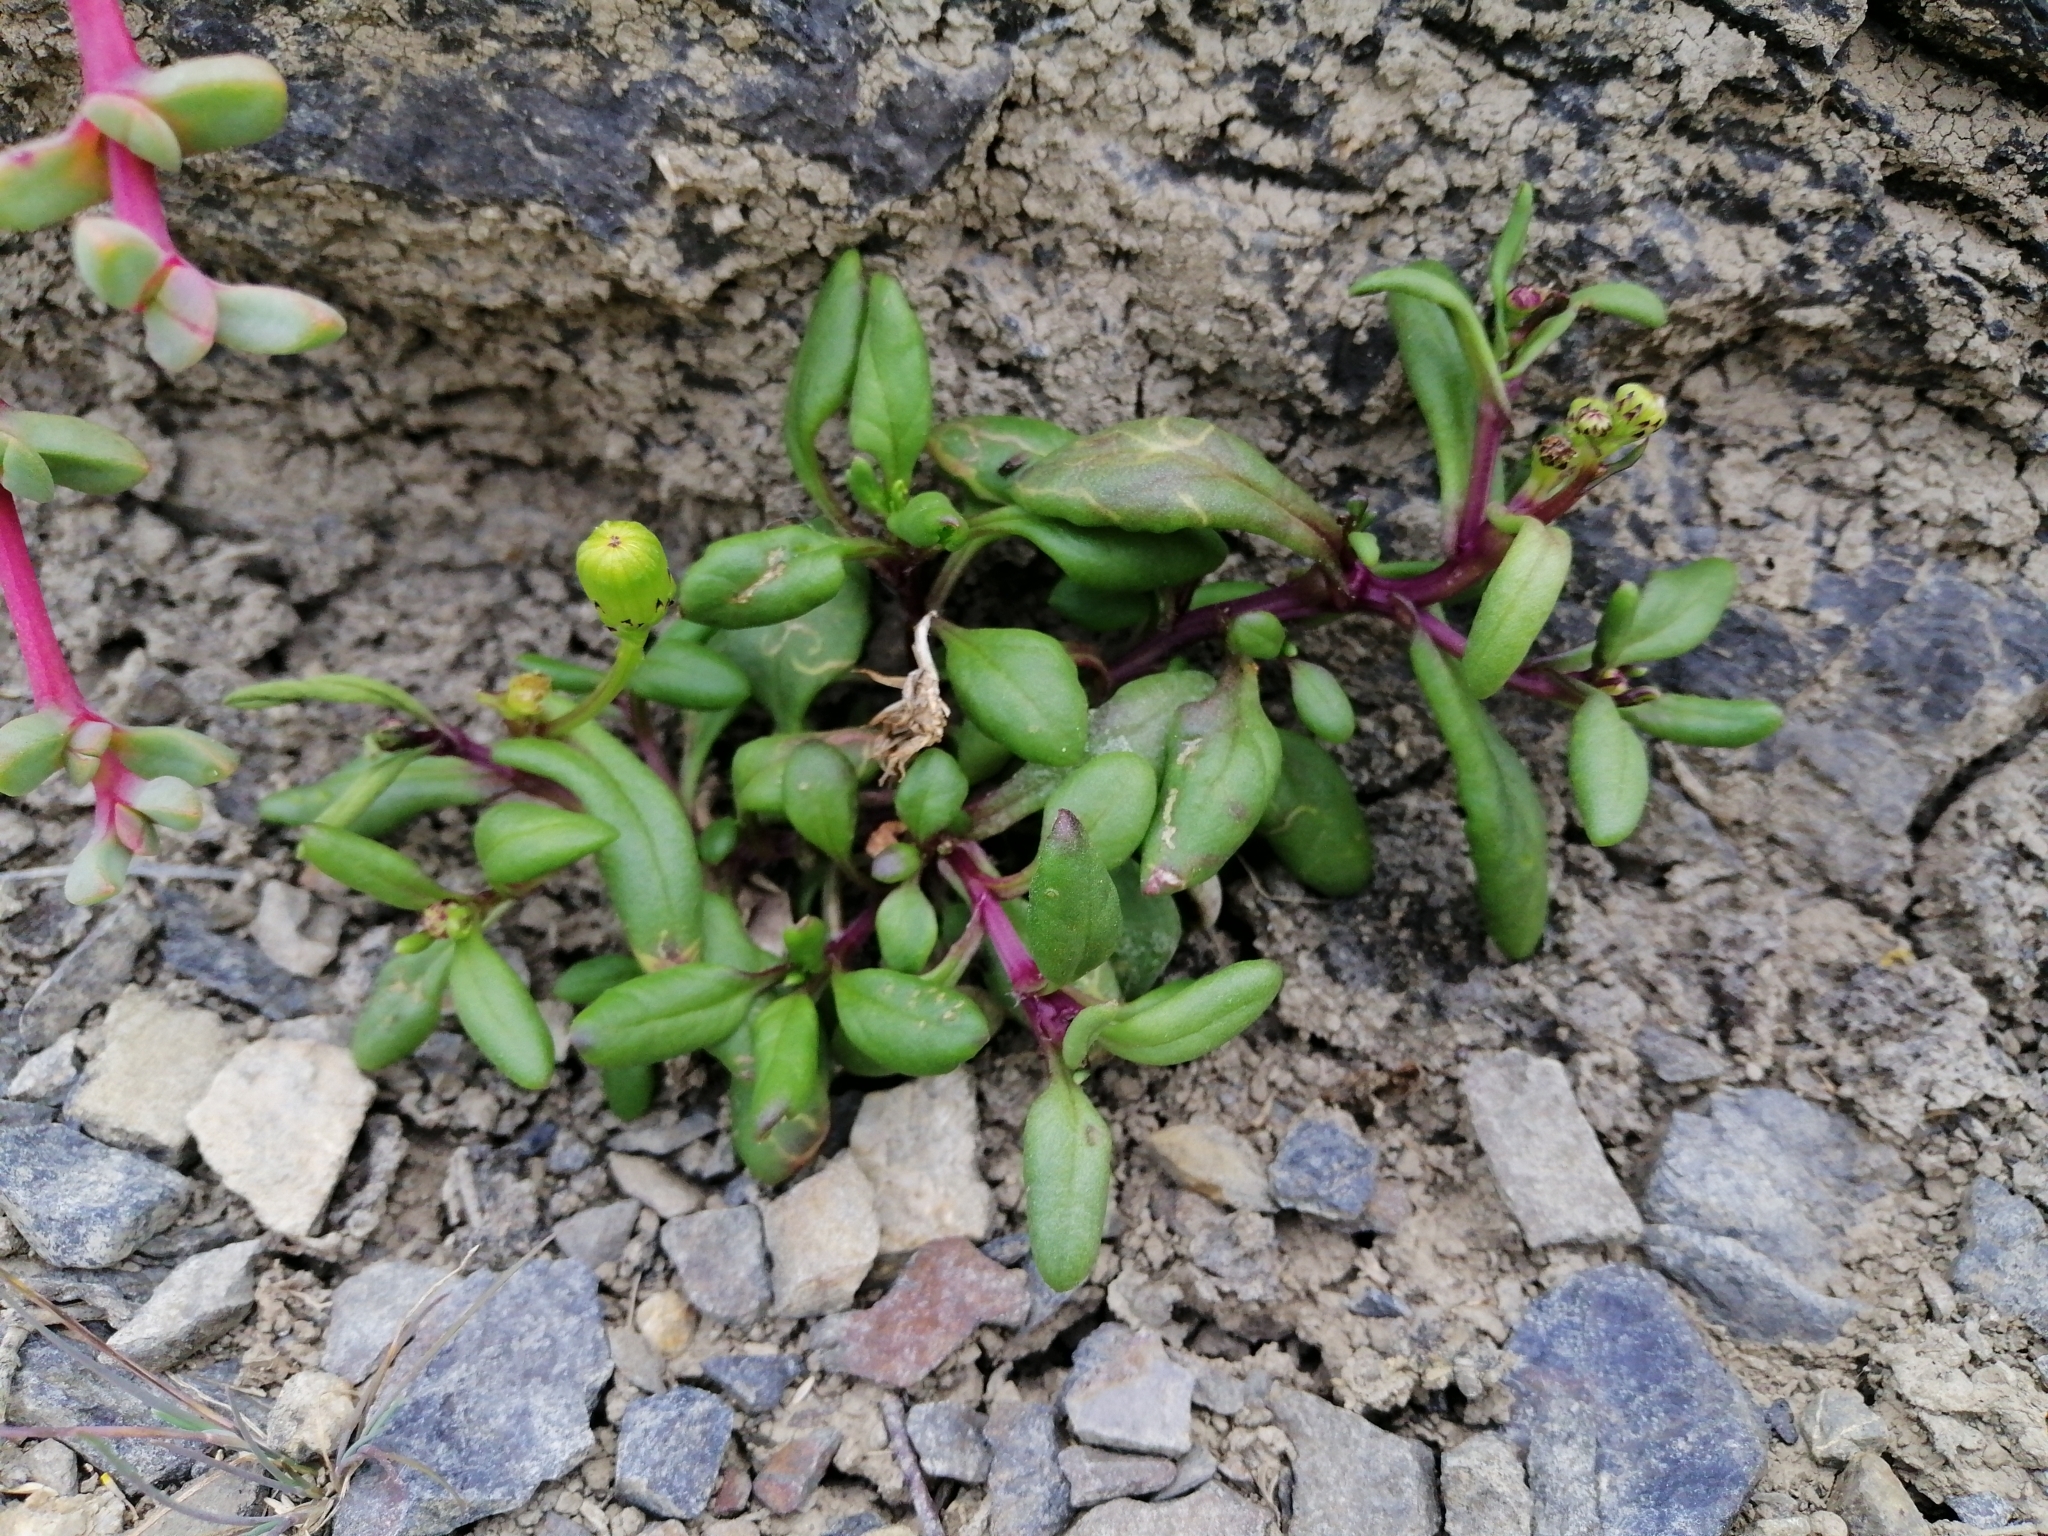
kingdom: Plantae
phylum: Tracheophyta
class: Magnoliopsida
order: Asterales
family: Asteraceae
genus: Senecio
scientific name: Senecio lautus
